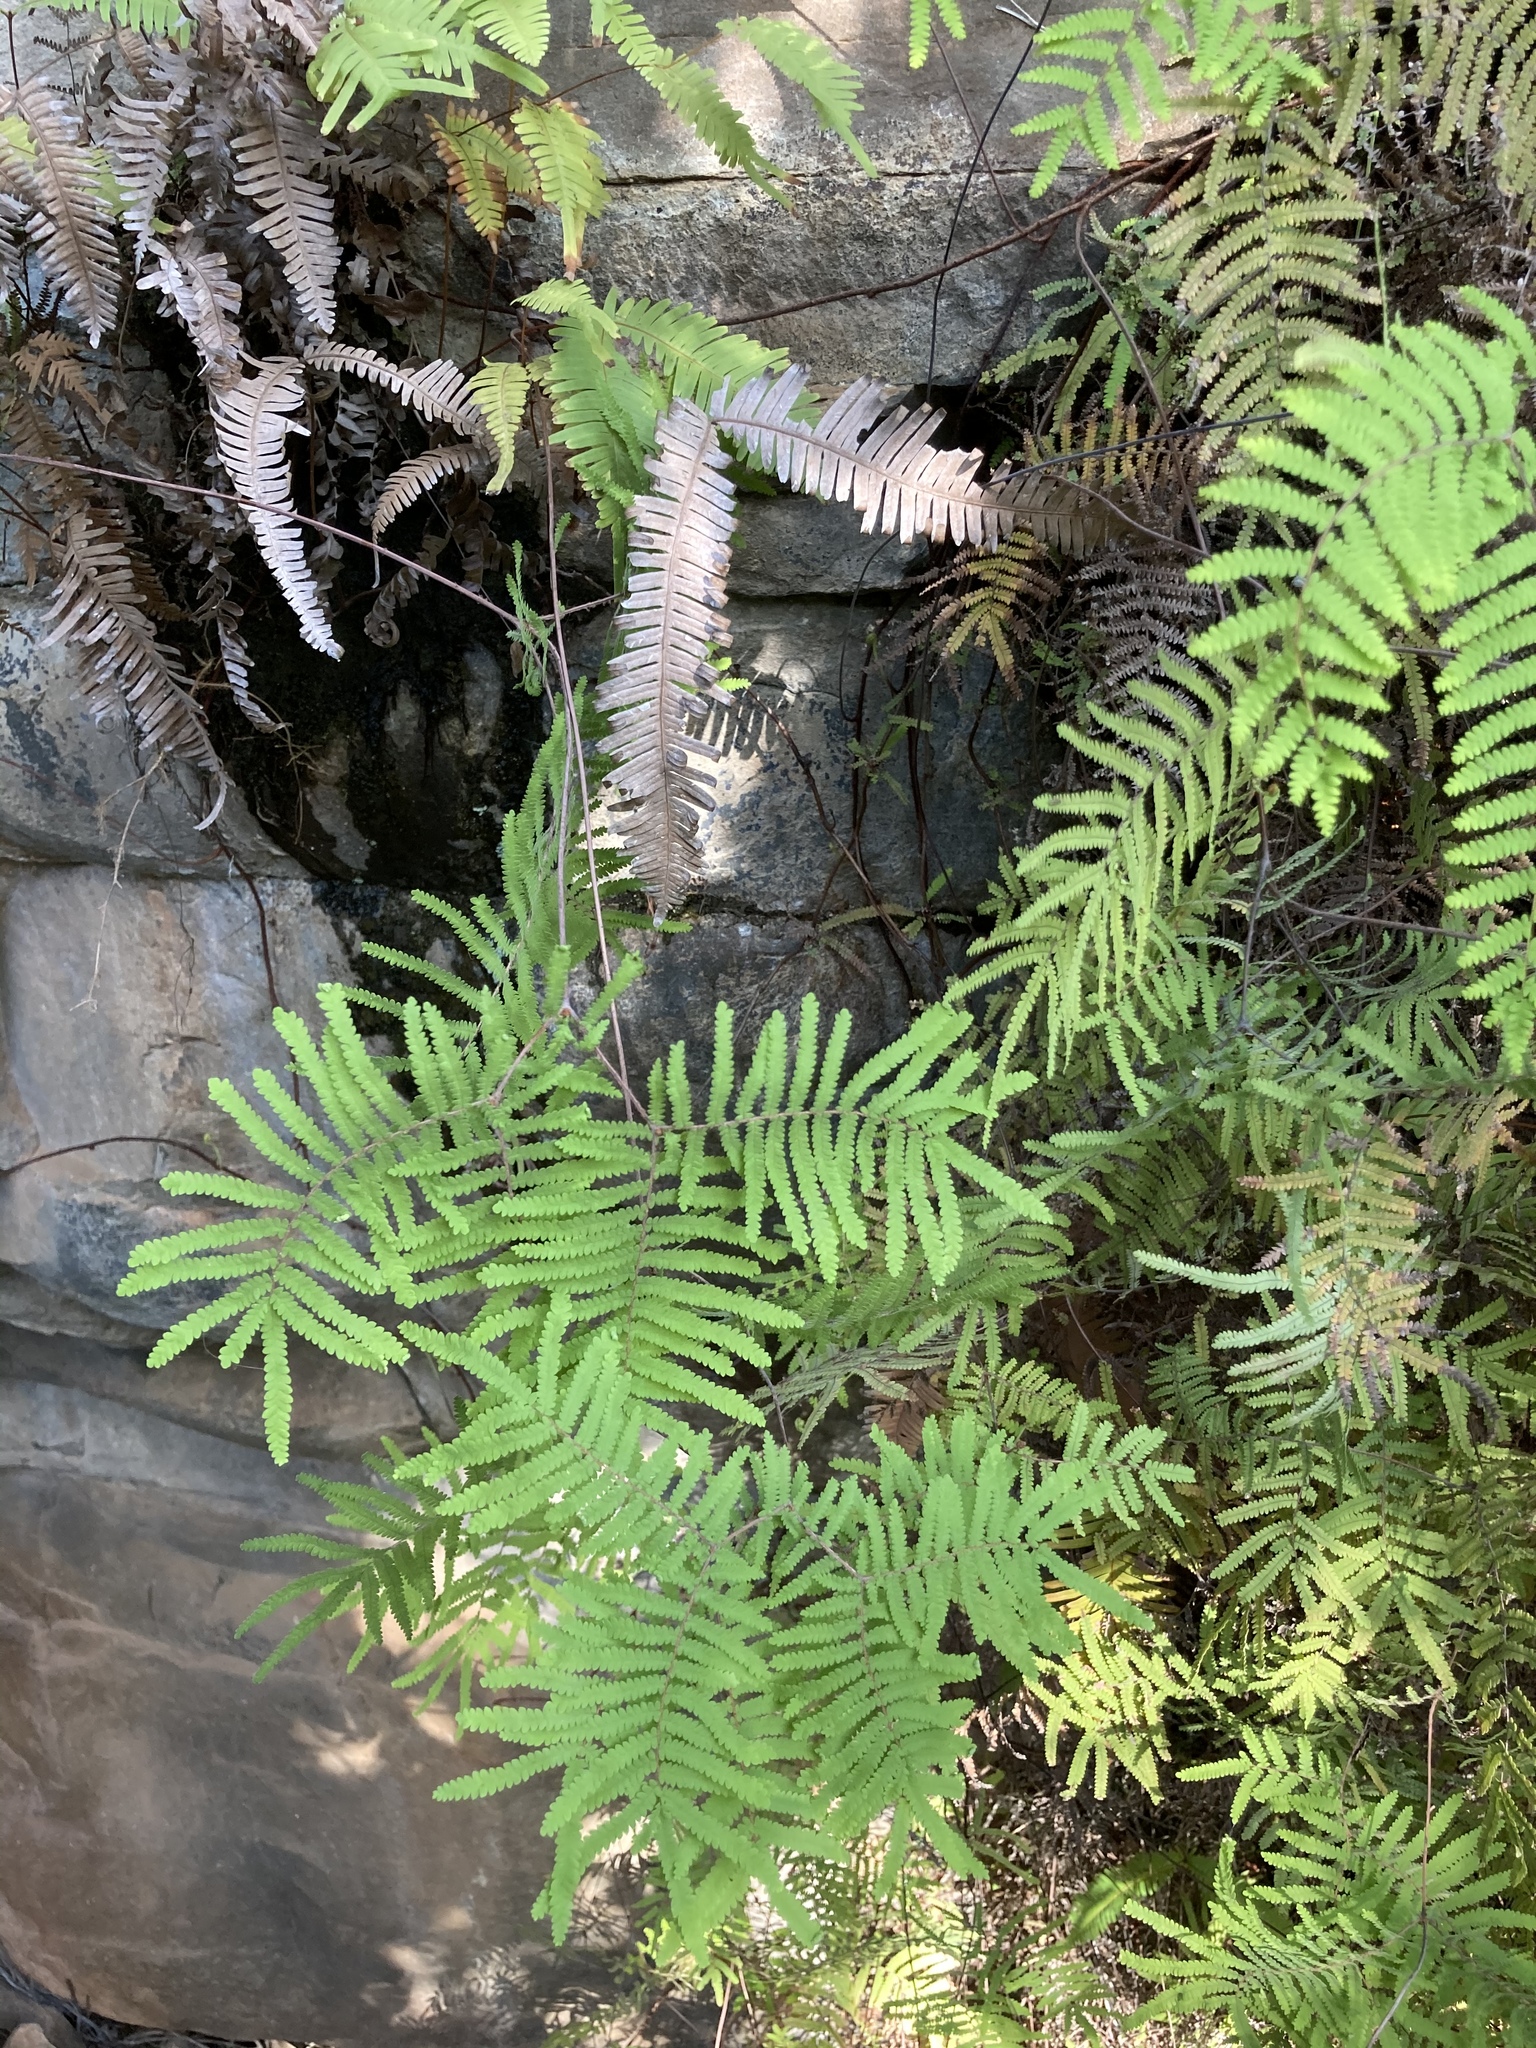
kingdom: Plantae
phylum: Tracheophyta
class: Polypodiopsida
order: Gleicheniales
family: Gleicheniaceae
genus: Gleichenia
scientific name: Gleichenia polypodioides
